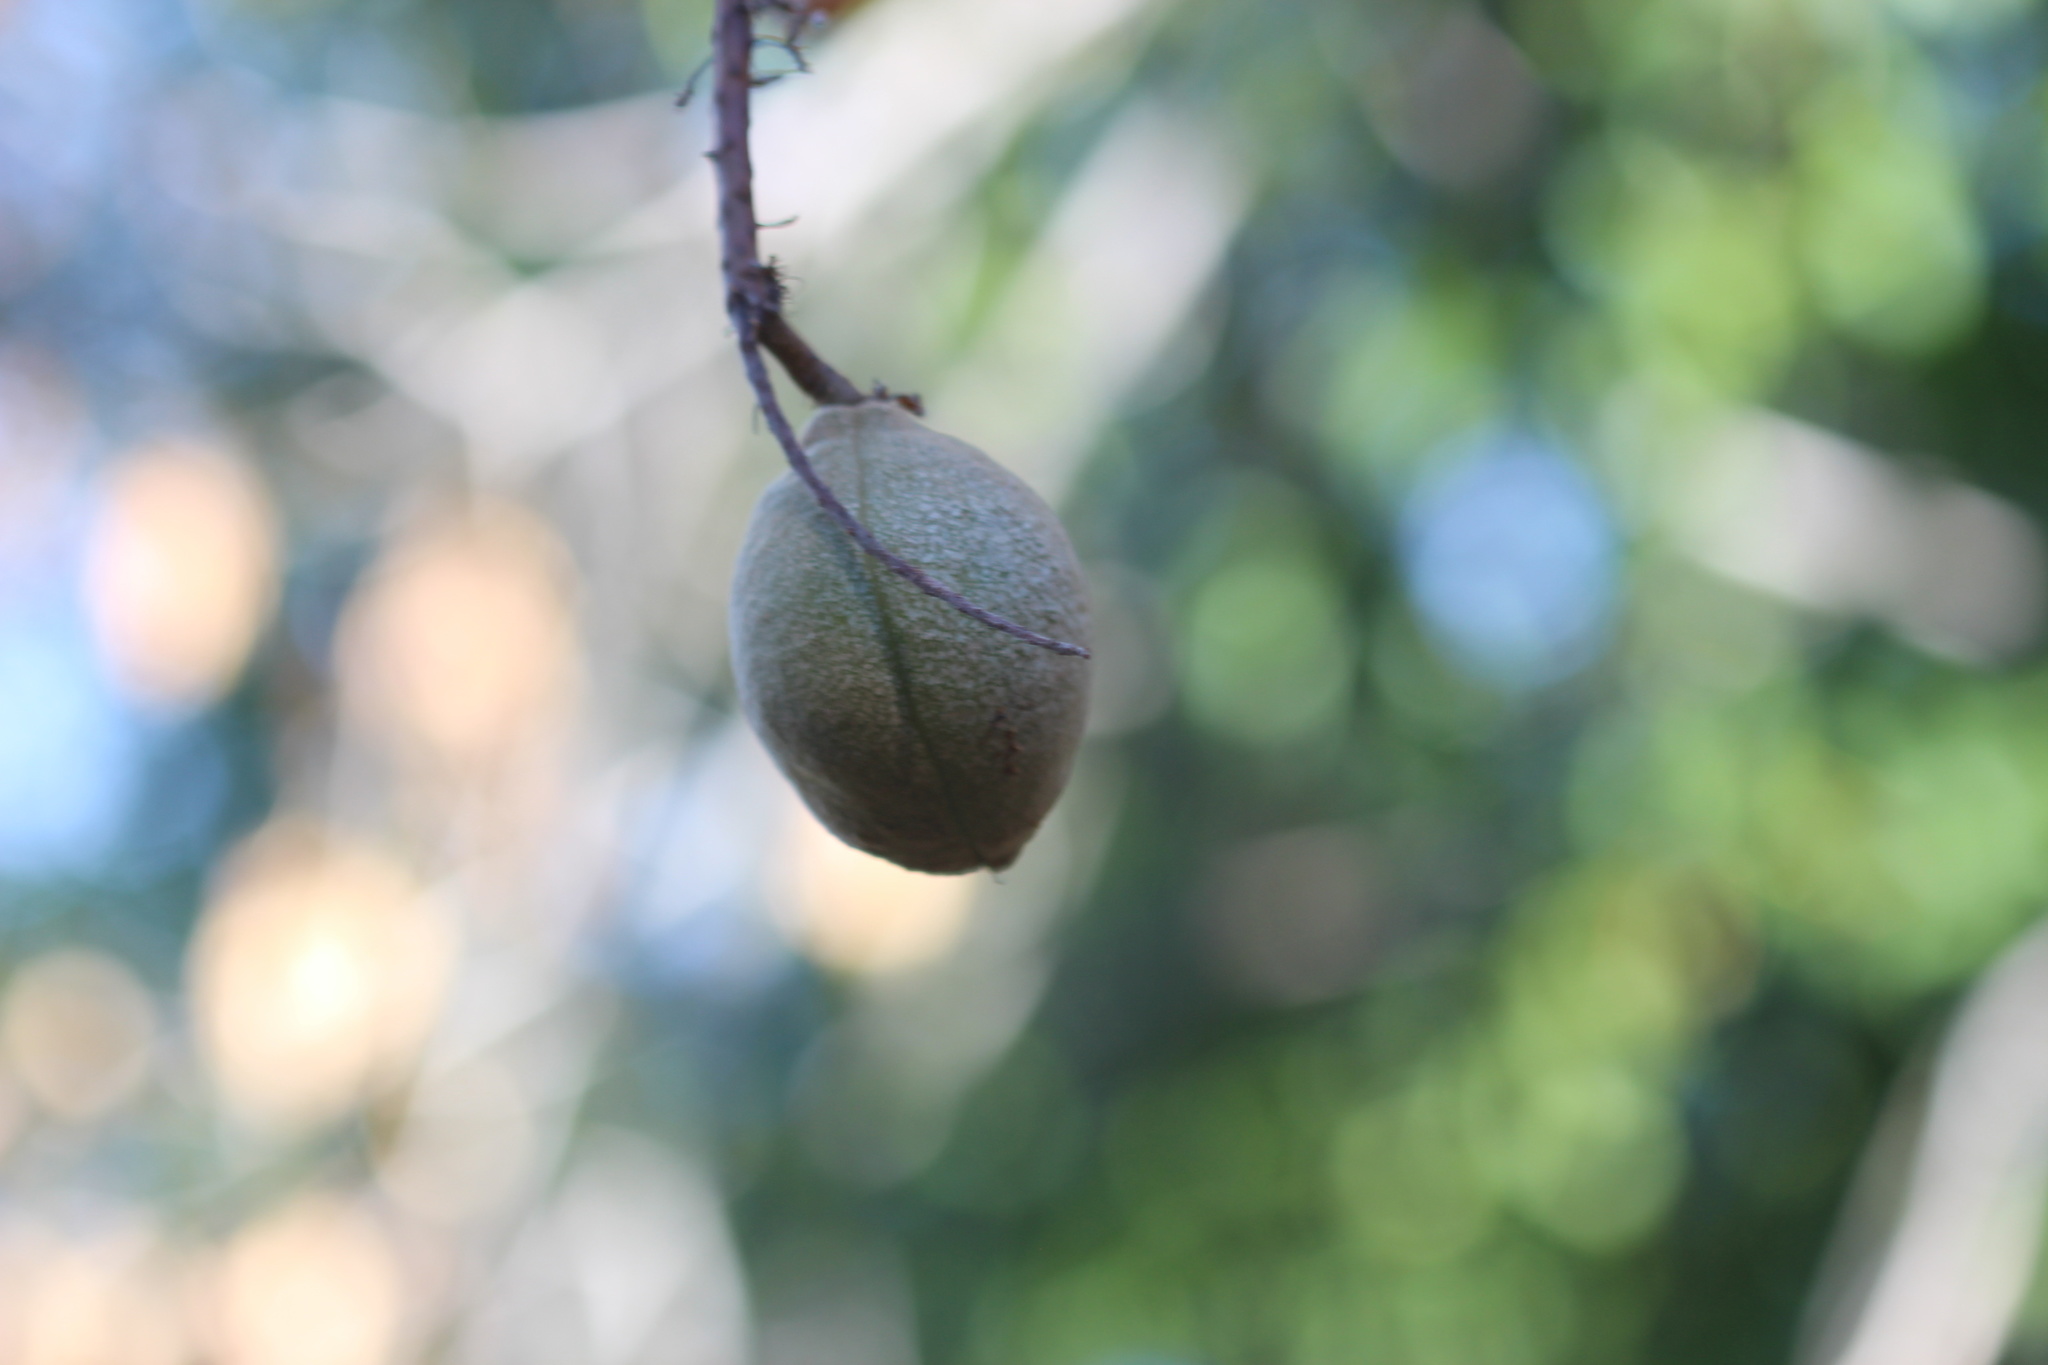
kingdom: Plantae
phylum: Tracheophyta
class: Magnoliopsida
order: Sapindales
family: Sapindaceae
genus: Aesculus
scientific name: Aesculus californica
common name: California buckeye
